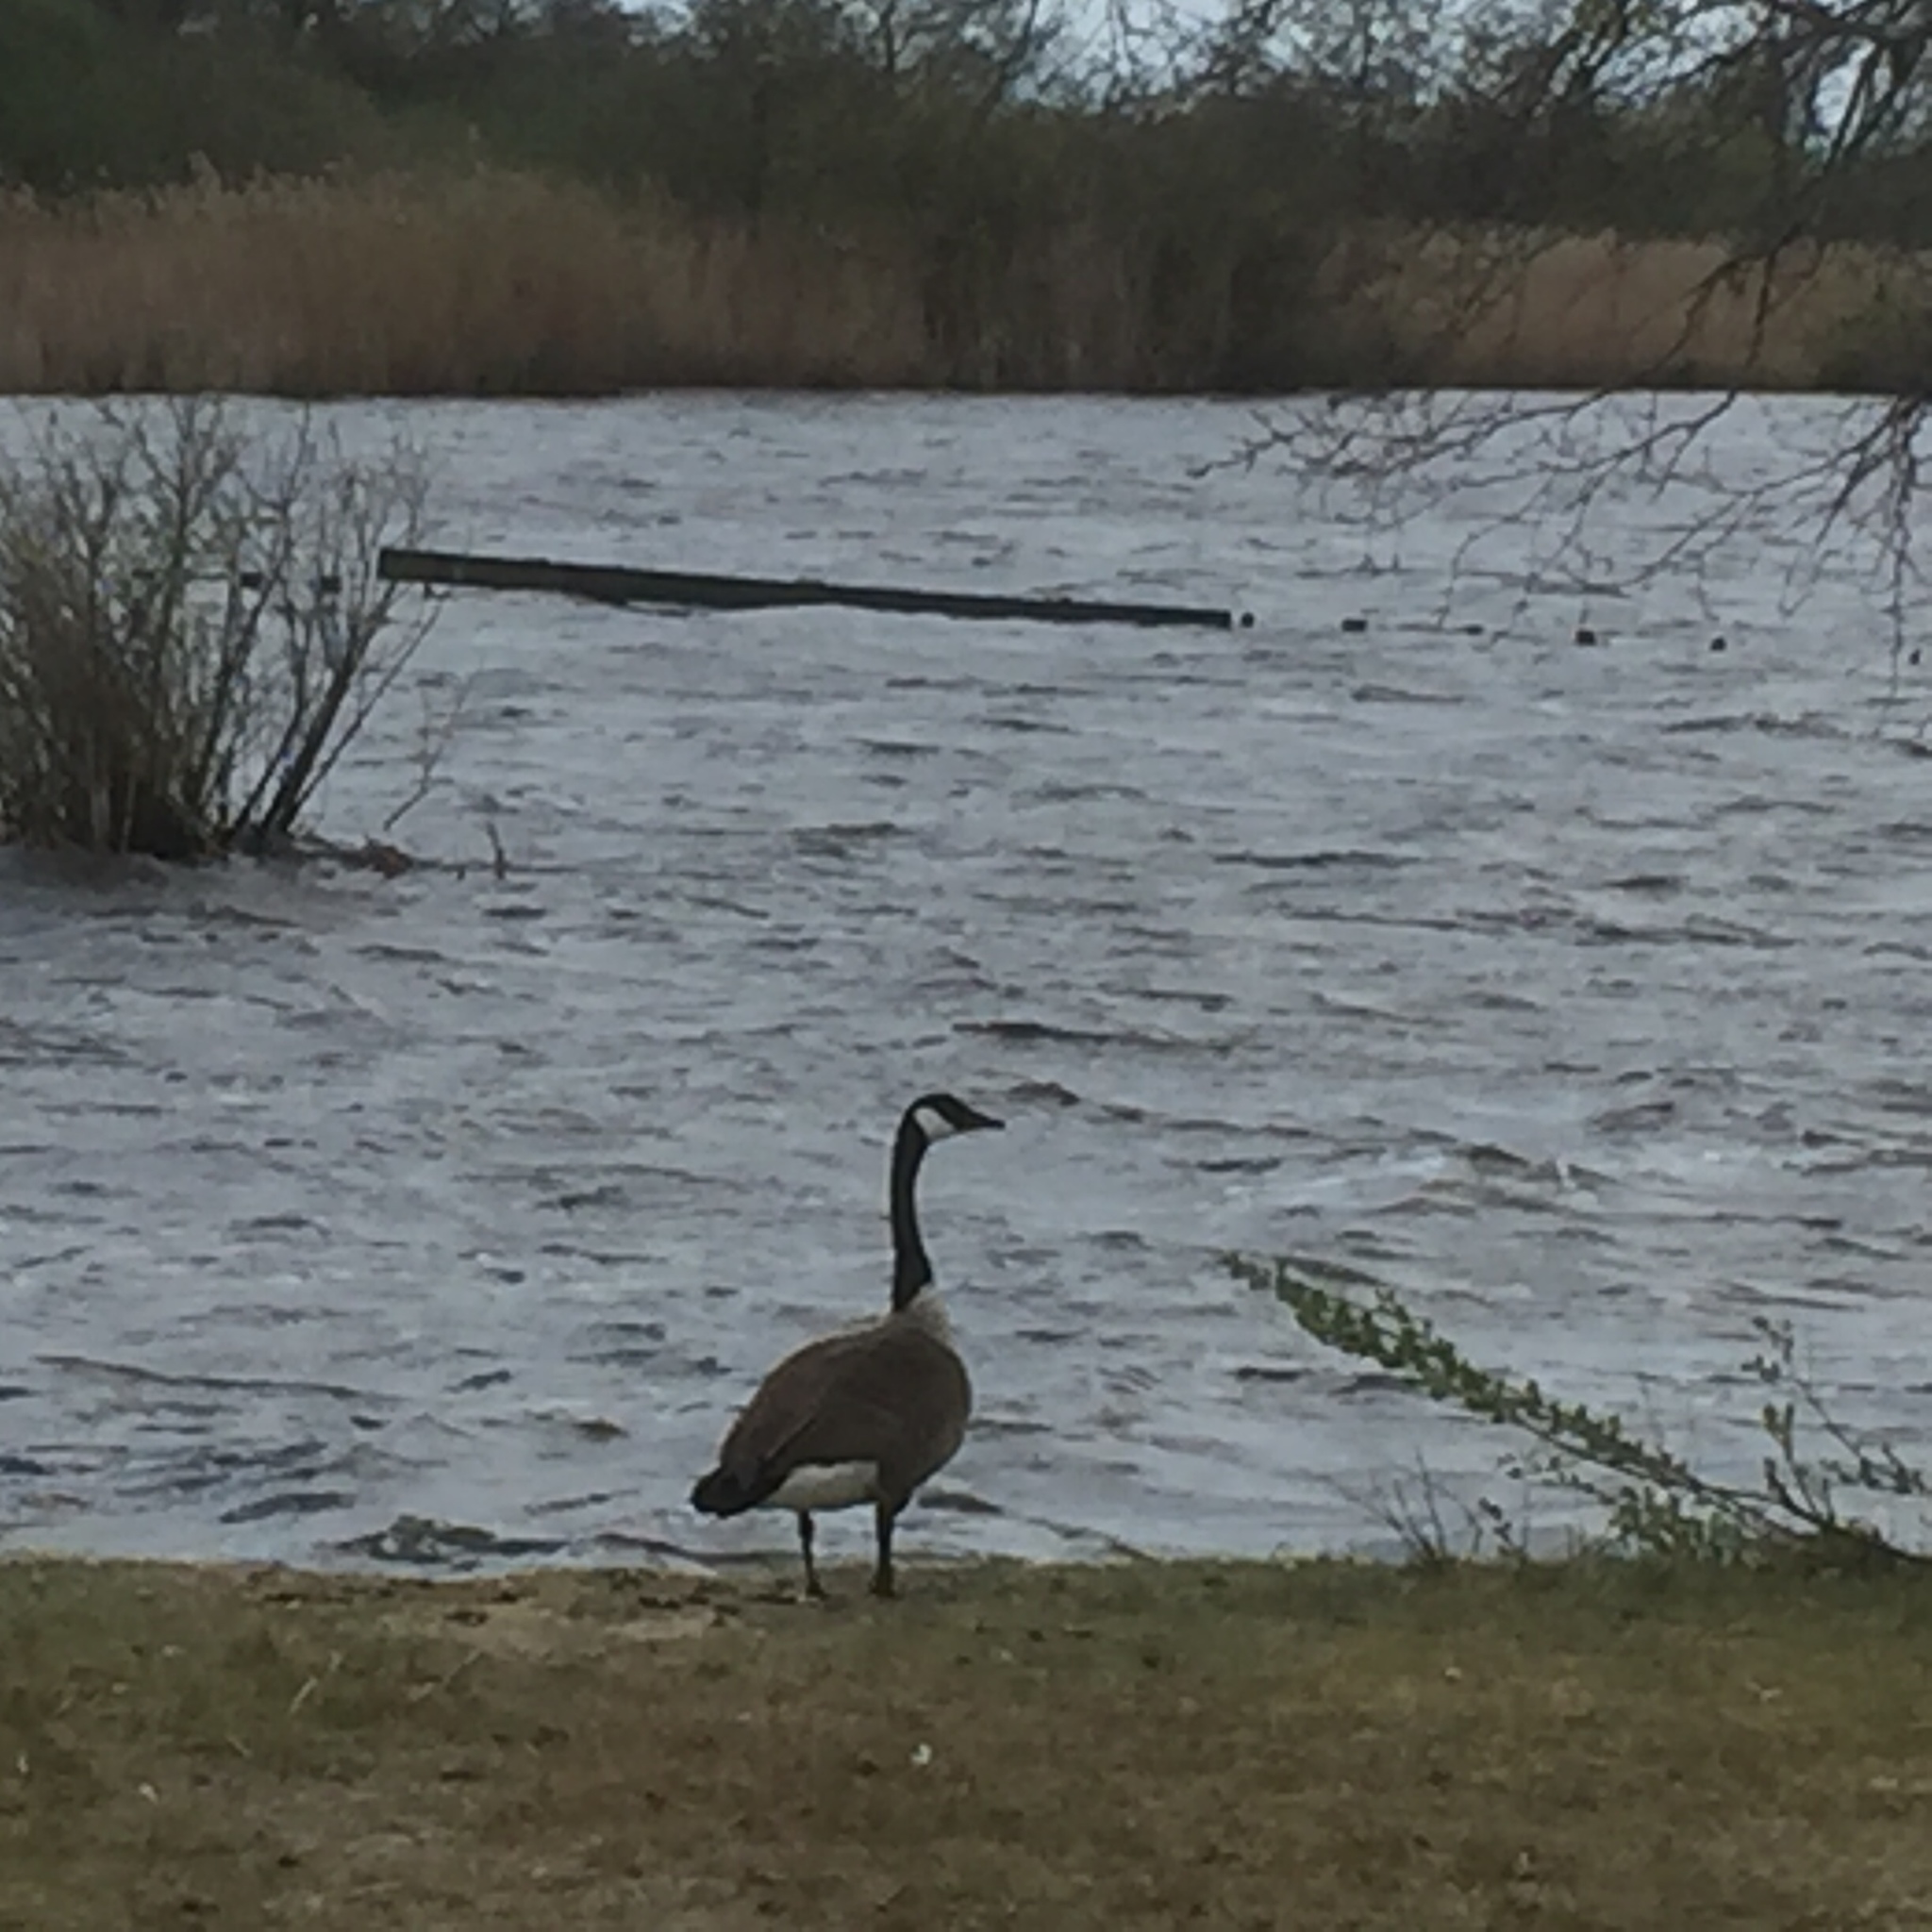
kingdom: Animalia
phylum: Chordata
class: Aves
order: Anseriformes
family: Anatidae
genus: Branta
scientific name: Branta canadensis
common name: Canada goose
